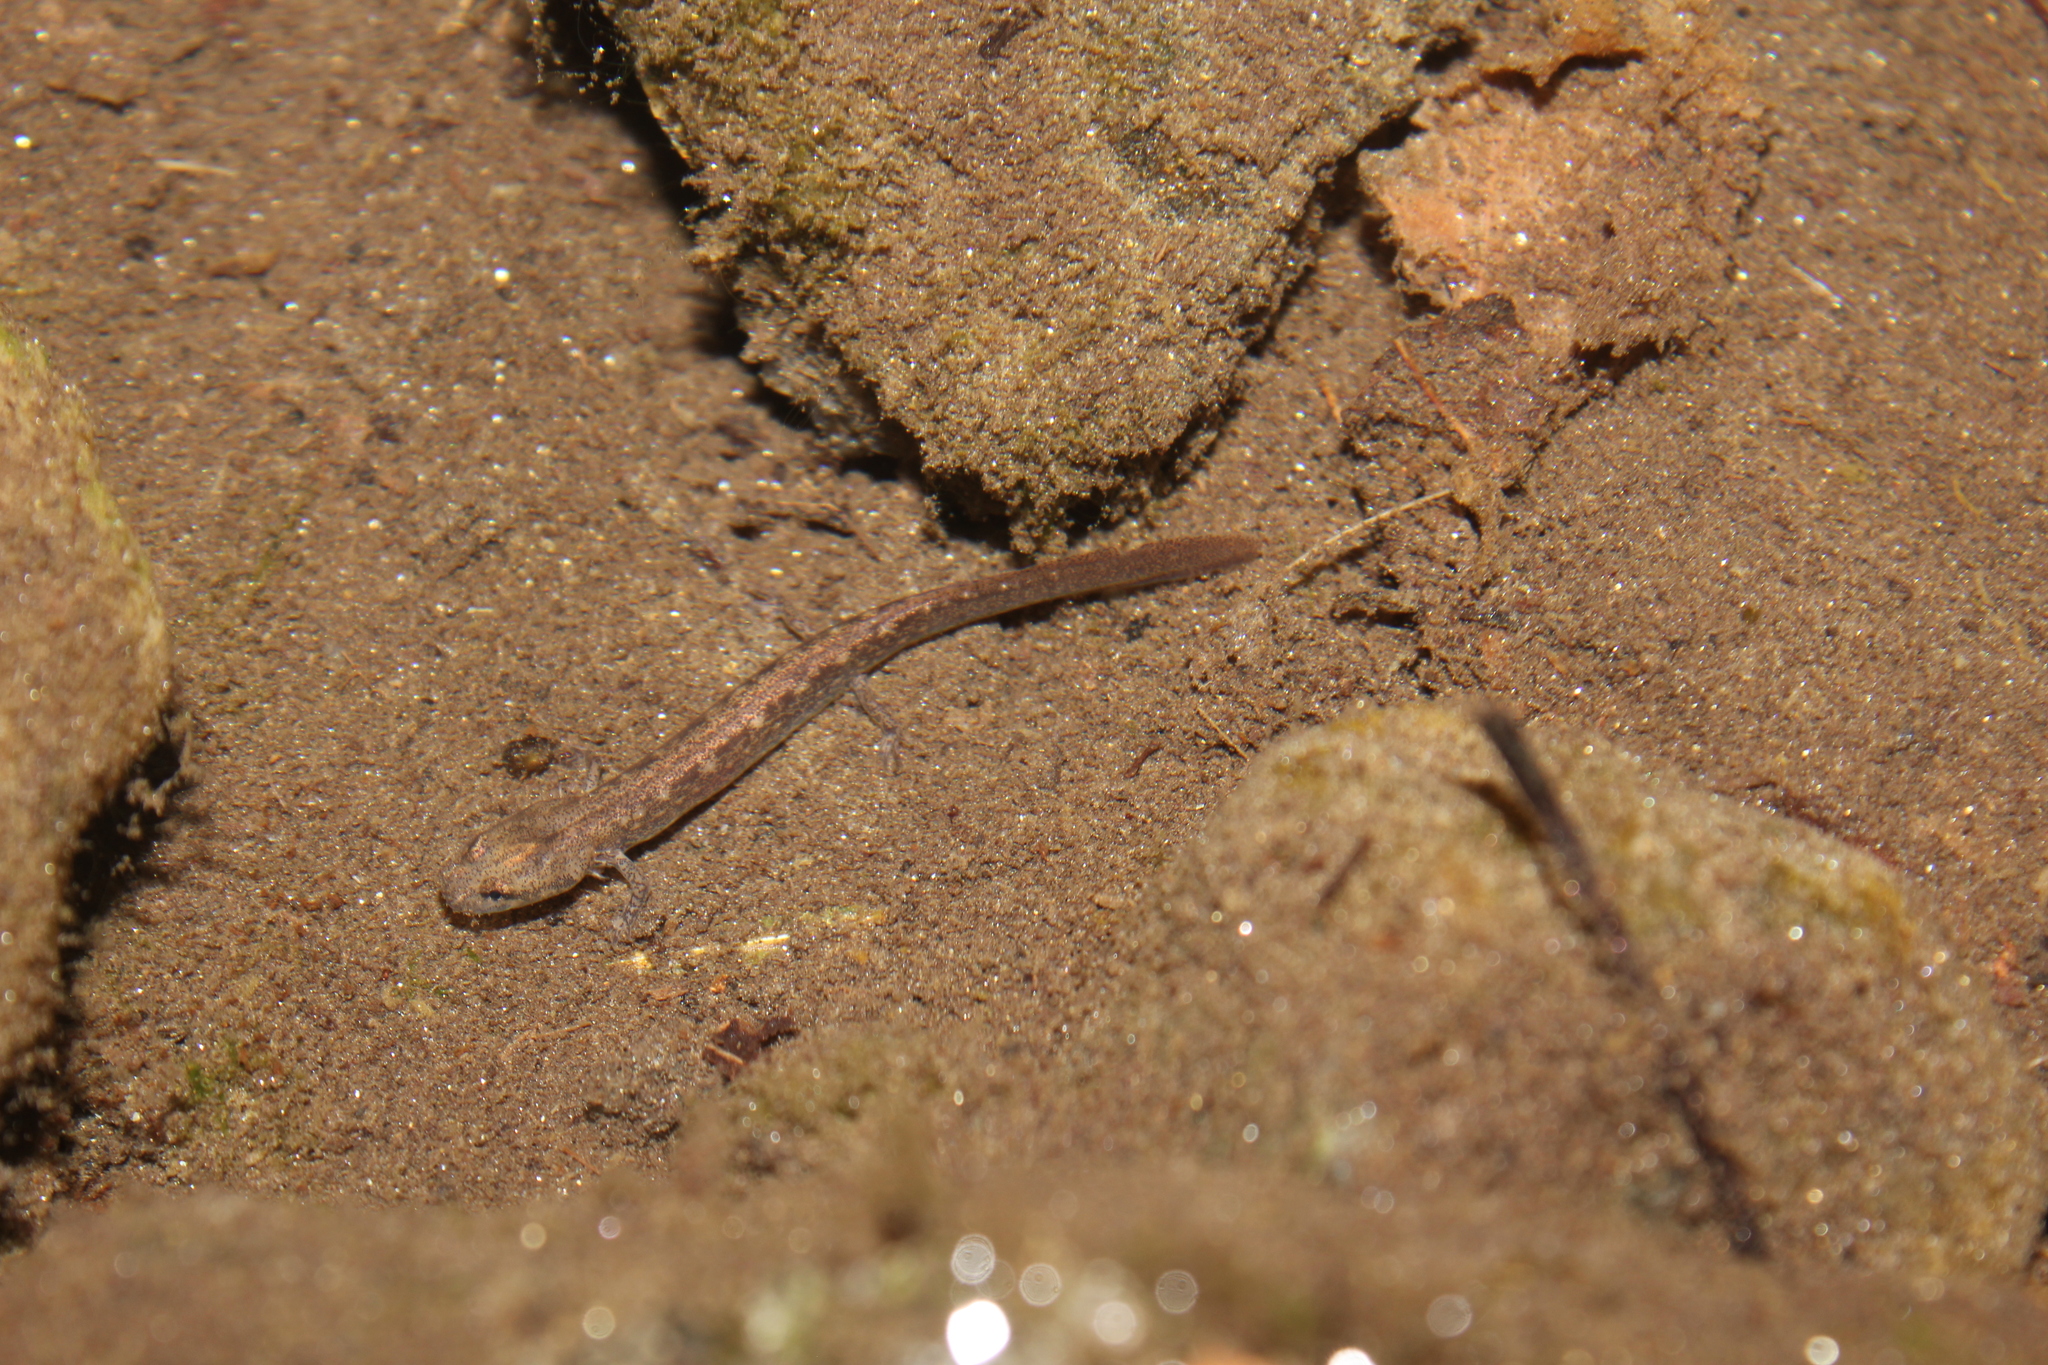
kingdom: Animalia
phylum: Chordata
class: Amphibia
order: Caudata
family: Plethodontidae
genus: Eurycea
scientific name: Eurycea bislineata
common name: Northern two-lined salamander
